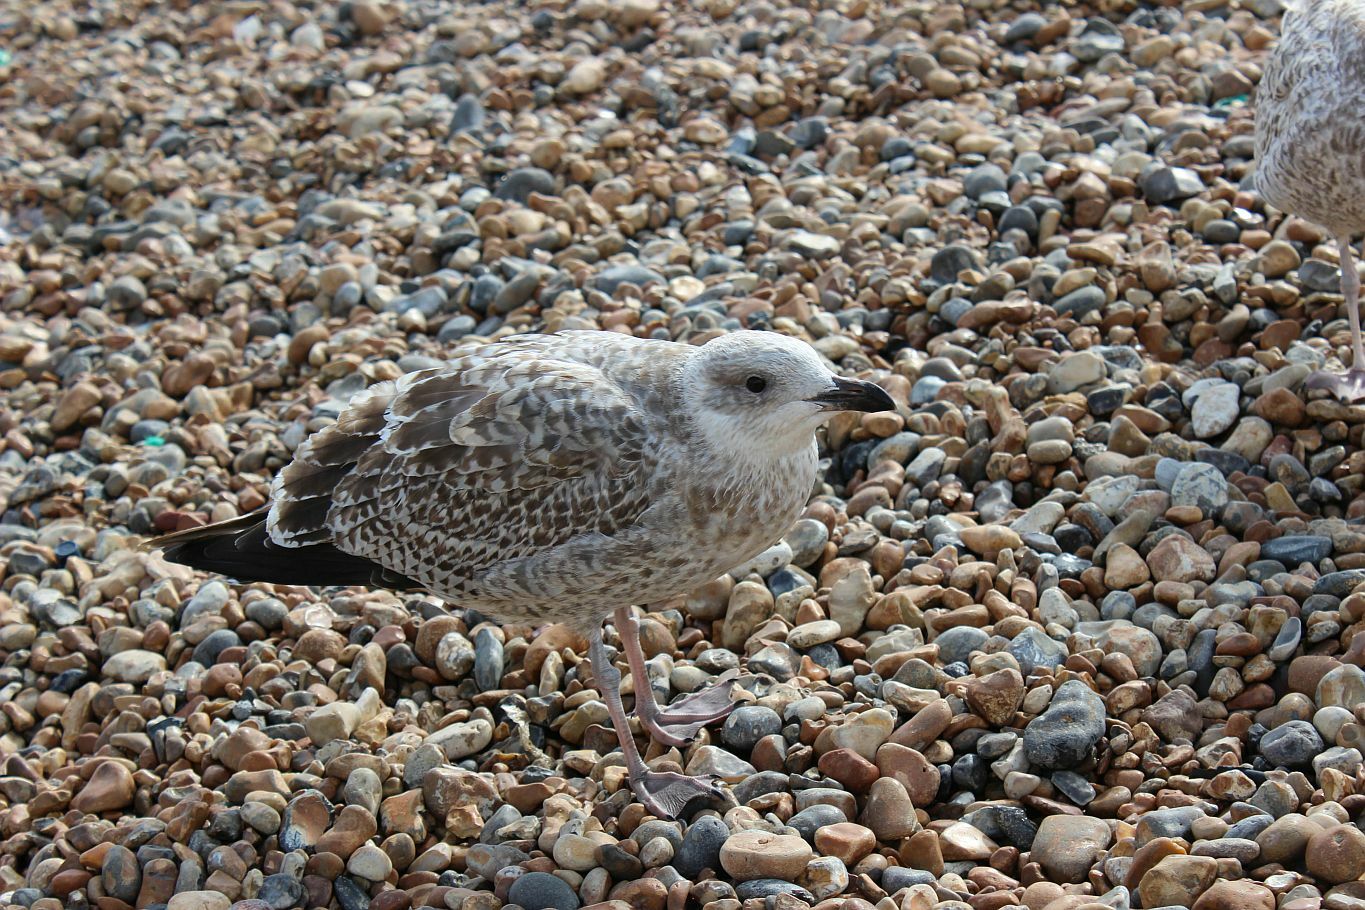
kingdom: Animalia
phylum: Chordata
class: Aves
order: Charadriiformes
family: Laridae
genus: Larus
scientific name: Larus argentatus
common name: Herring gull
